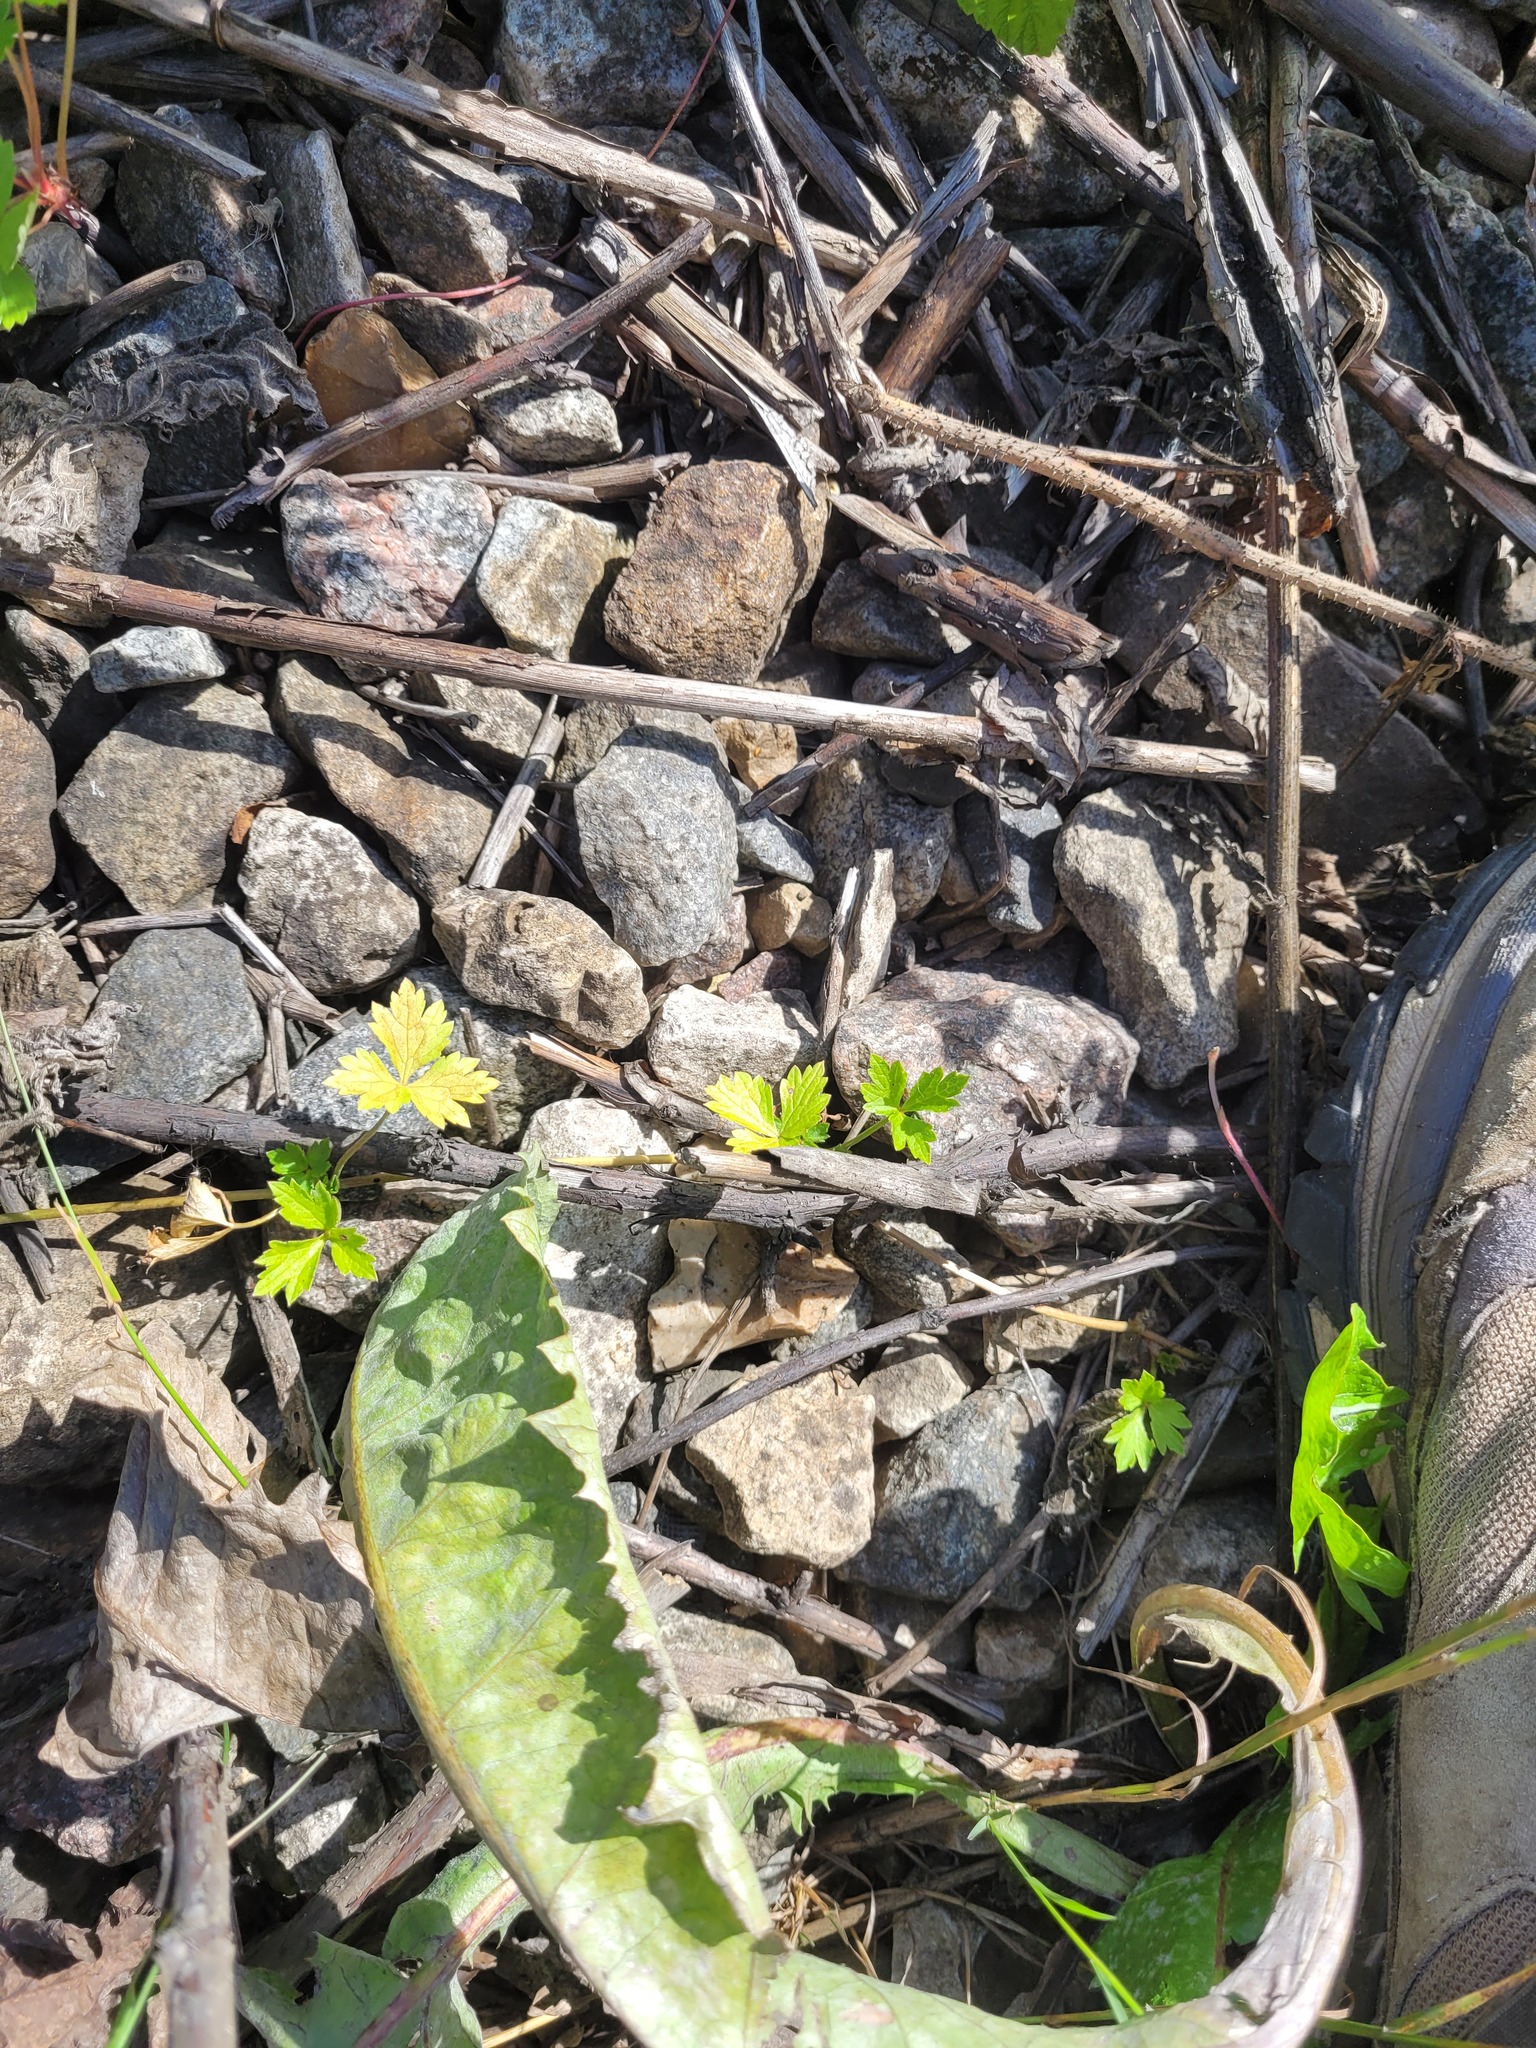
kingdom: Plantae
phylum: Tracheophyta
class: Magnoliopsida
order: Ranunculales
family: Ranunculaceae
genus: Ranunculus
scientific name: Ranunculus repens
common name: Creeping buttercup
